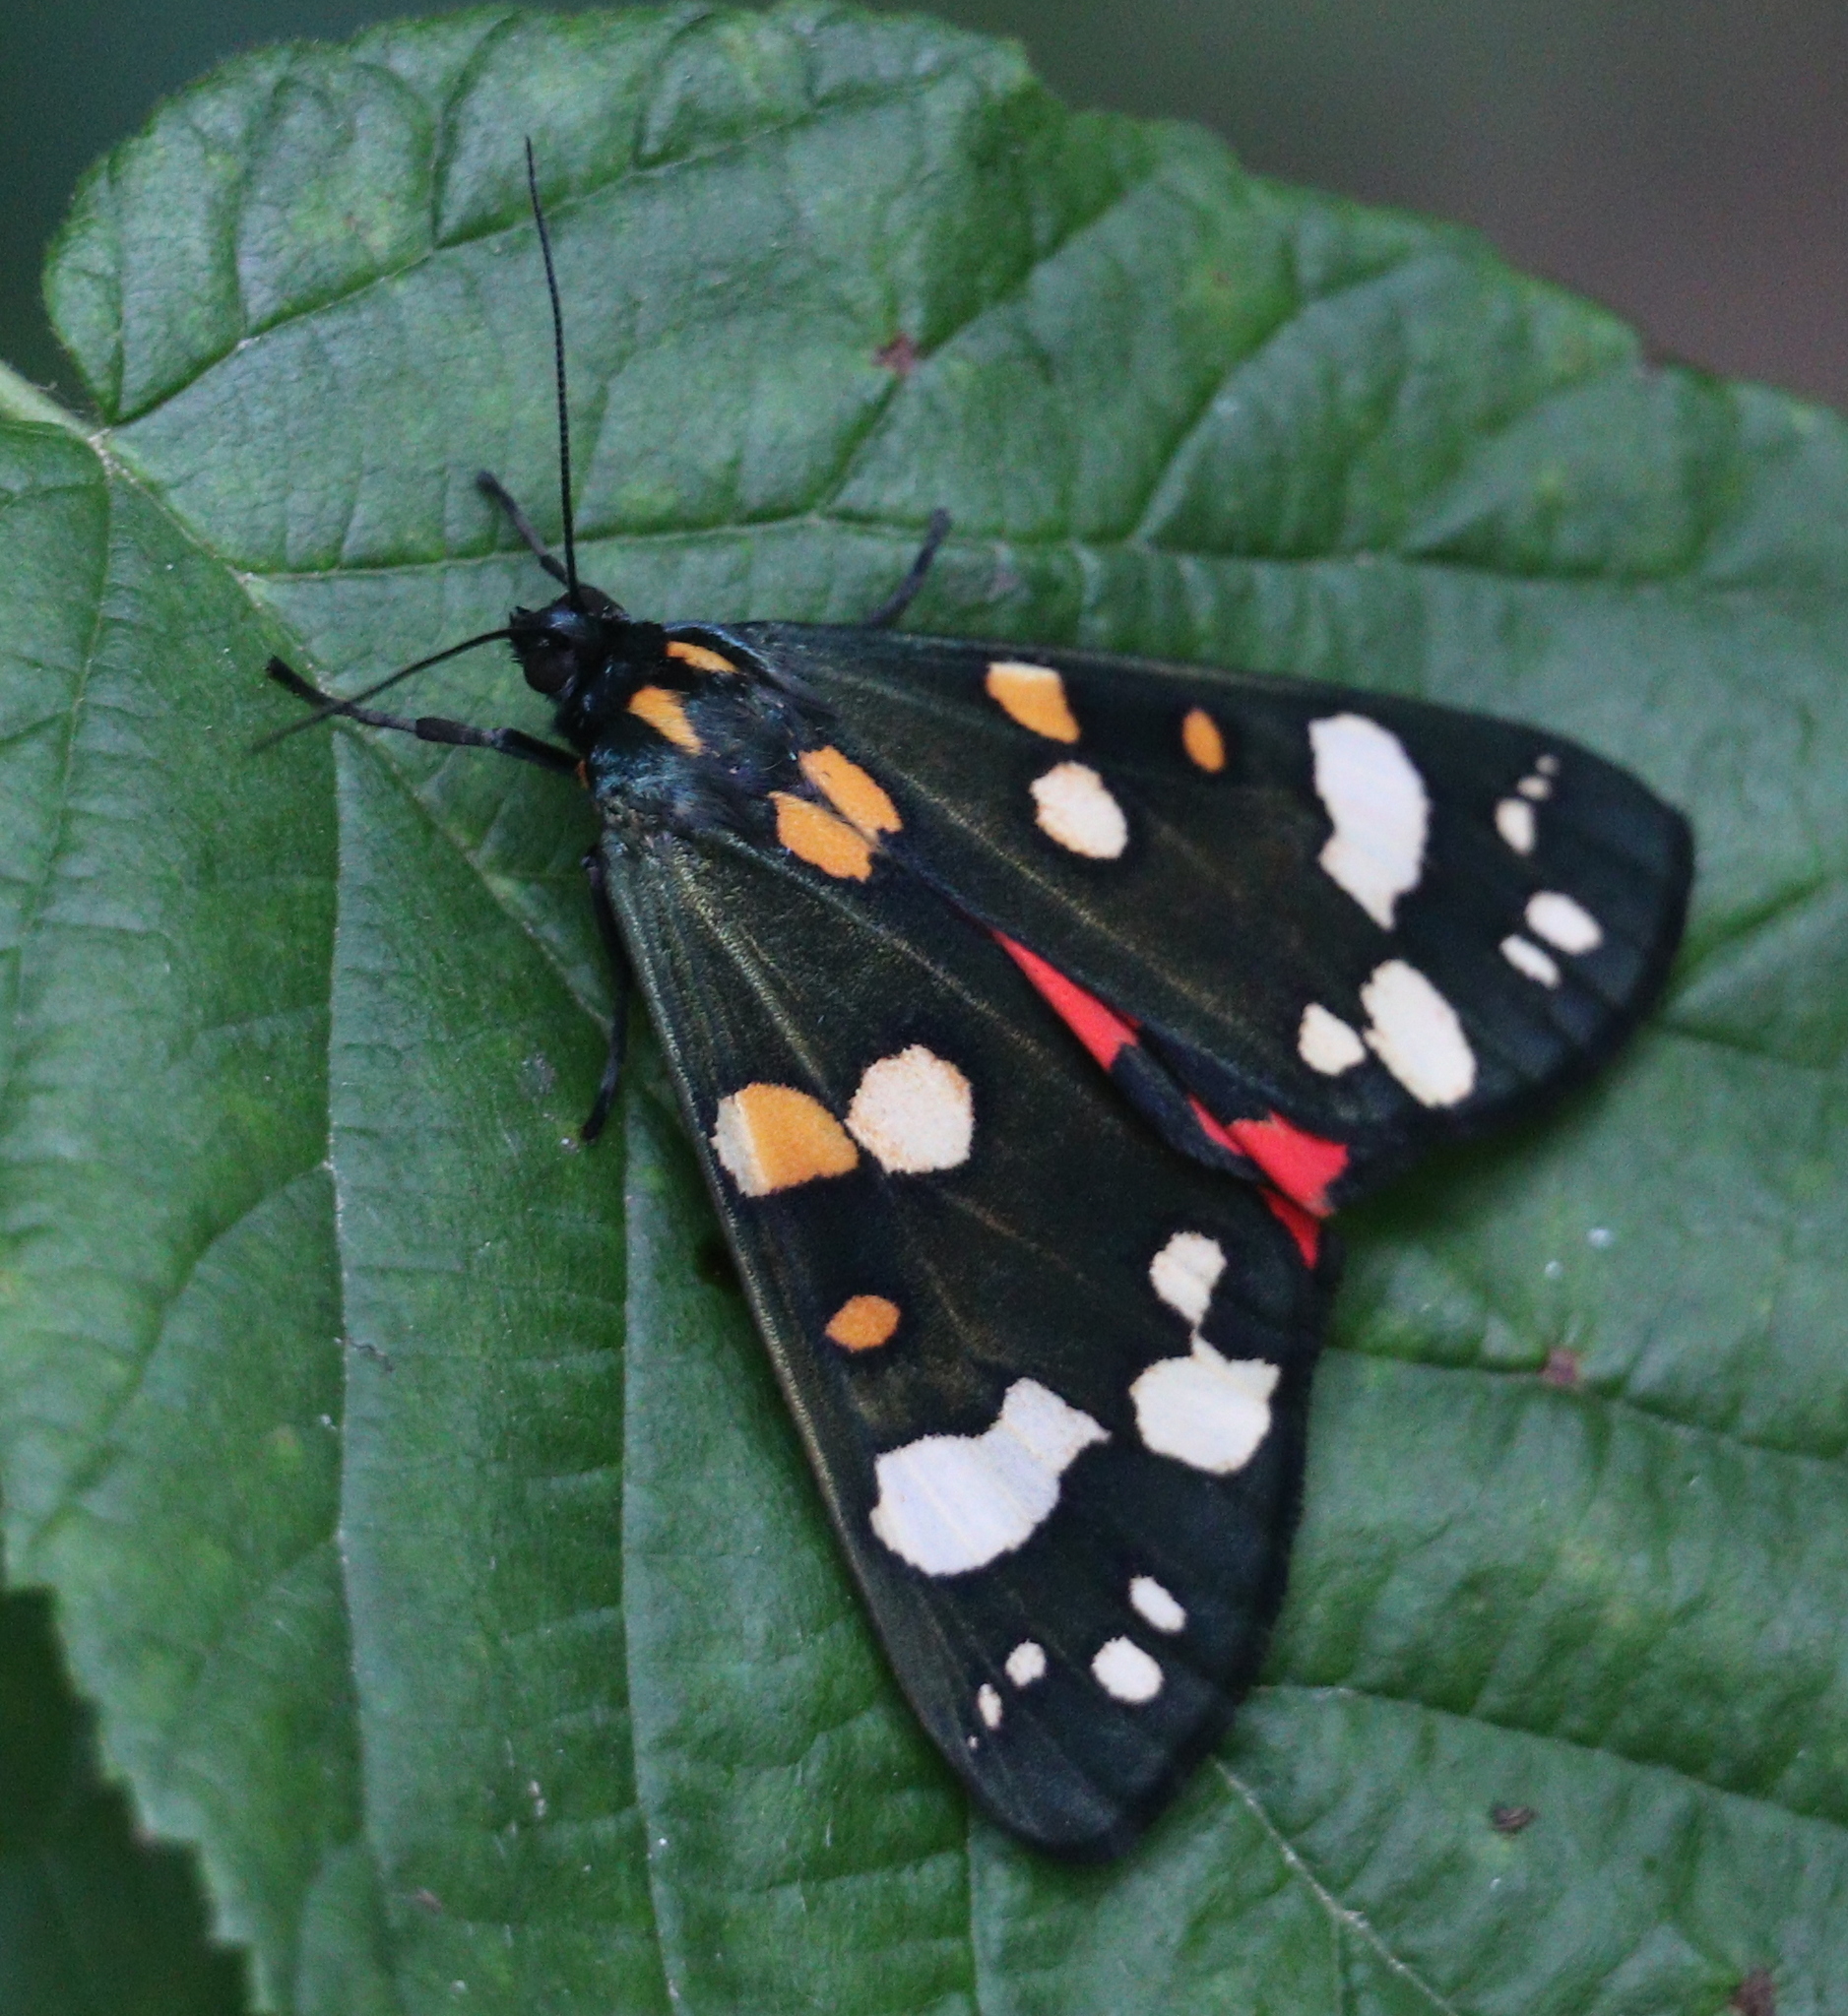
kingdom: Animalia
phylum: Arthropoda
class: Insecta
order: Lepidoptera
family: Erebidae
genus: Callimorpha
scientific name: Callimorpha dominula
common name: Scarlet tiger
